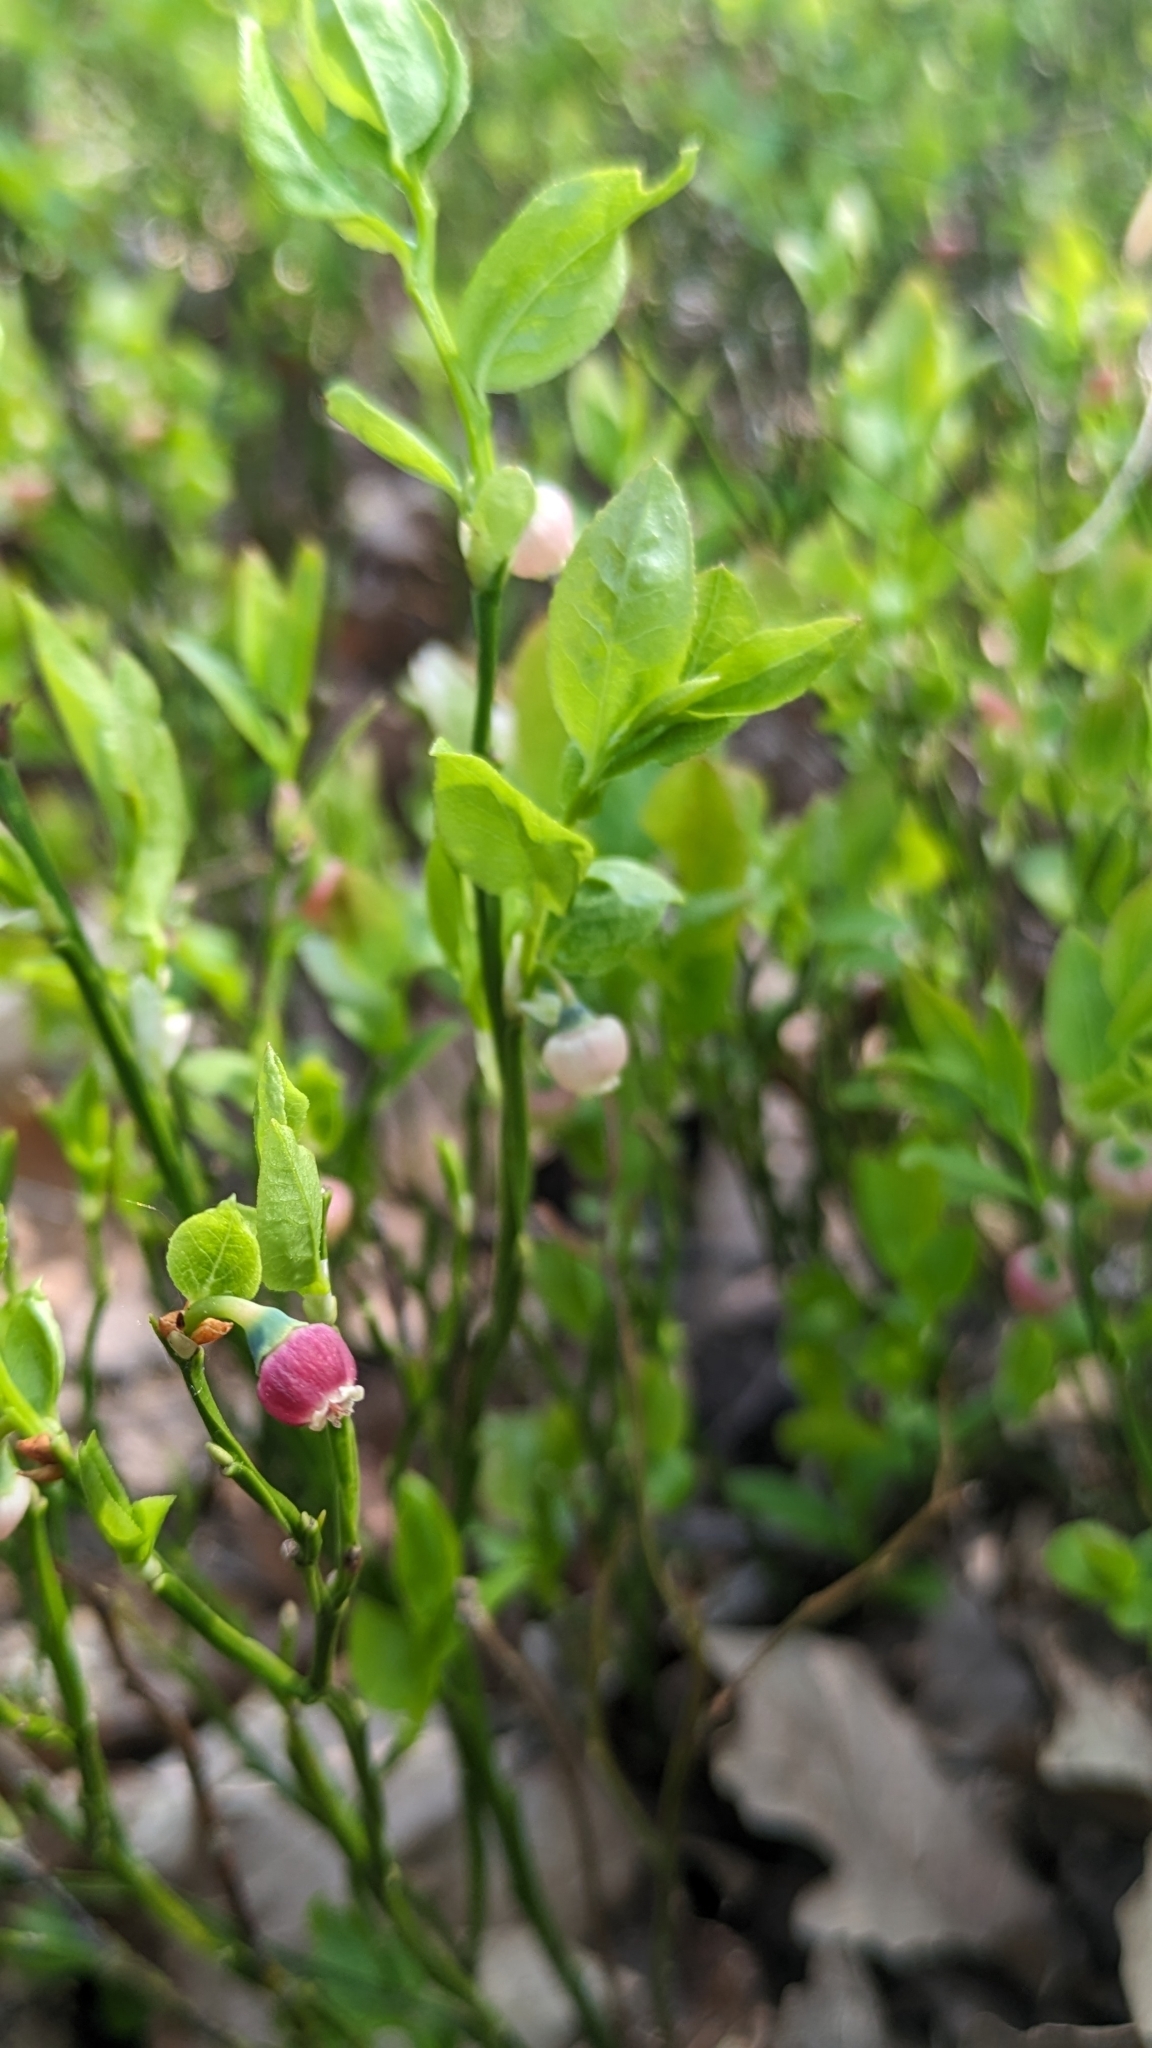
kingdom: Plantae
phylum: Tracheophyta
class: Magnoliopsida
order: Ericales
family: Ericaceae
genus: Vaccinium
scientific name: Vaccinium myrtillus
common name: Bilberry
